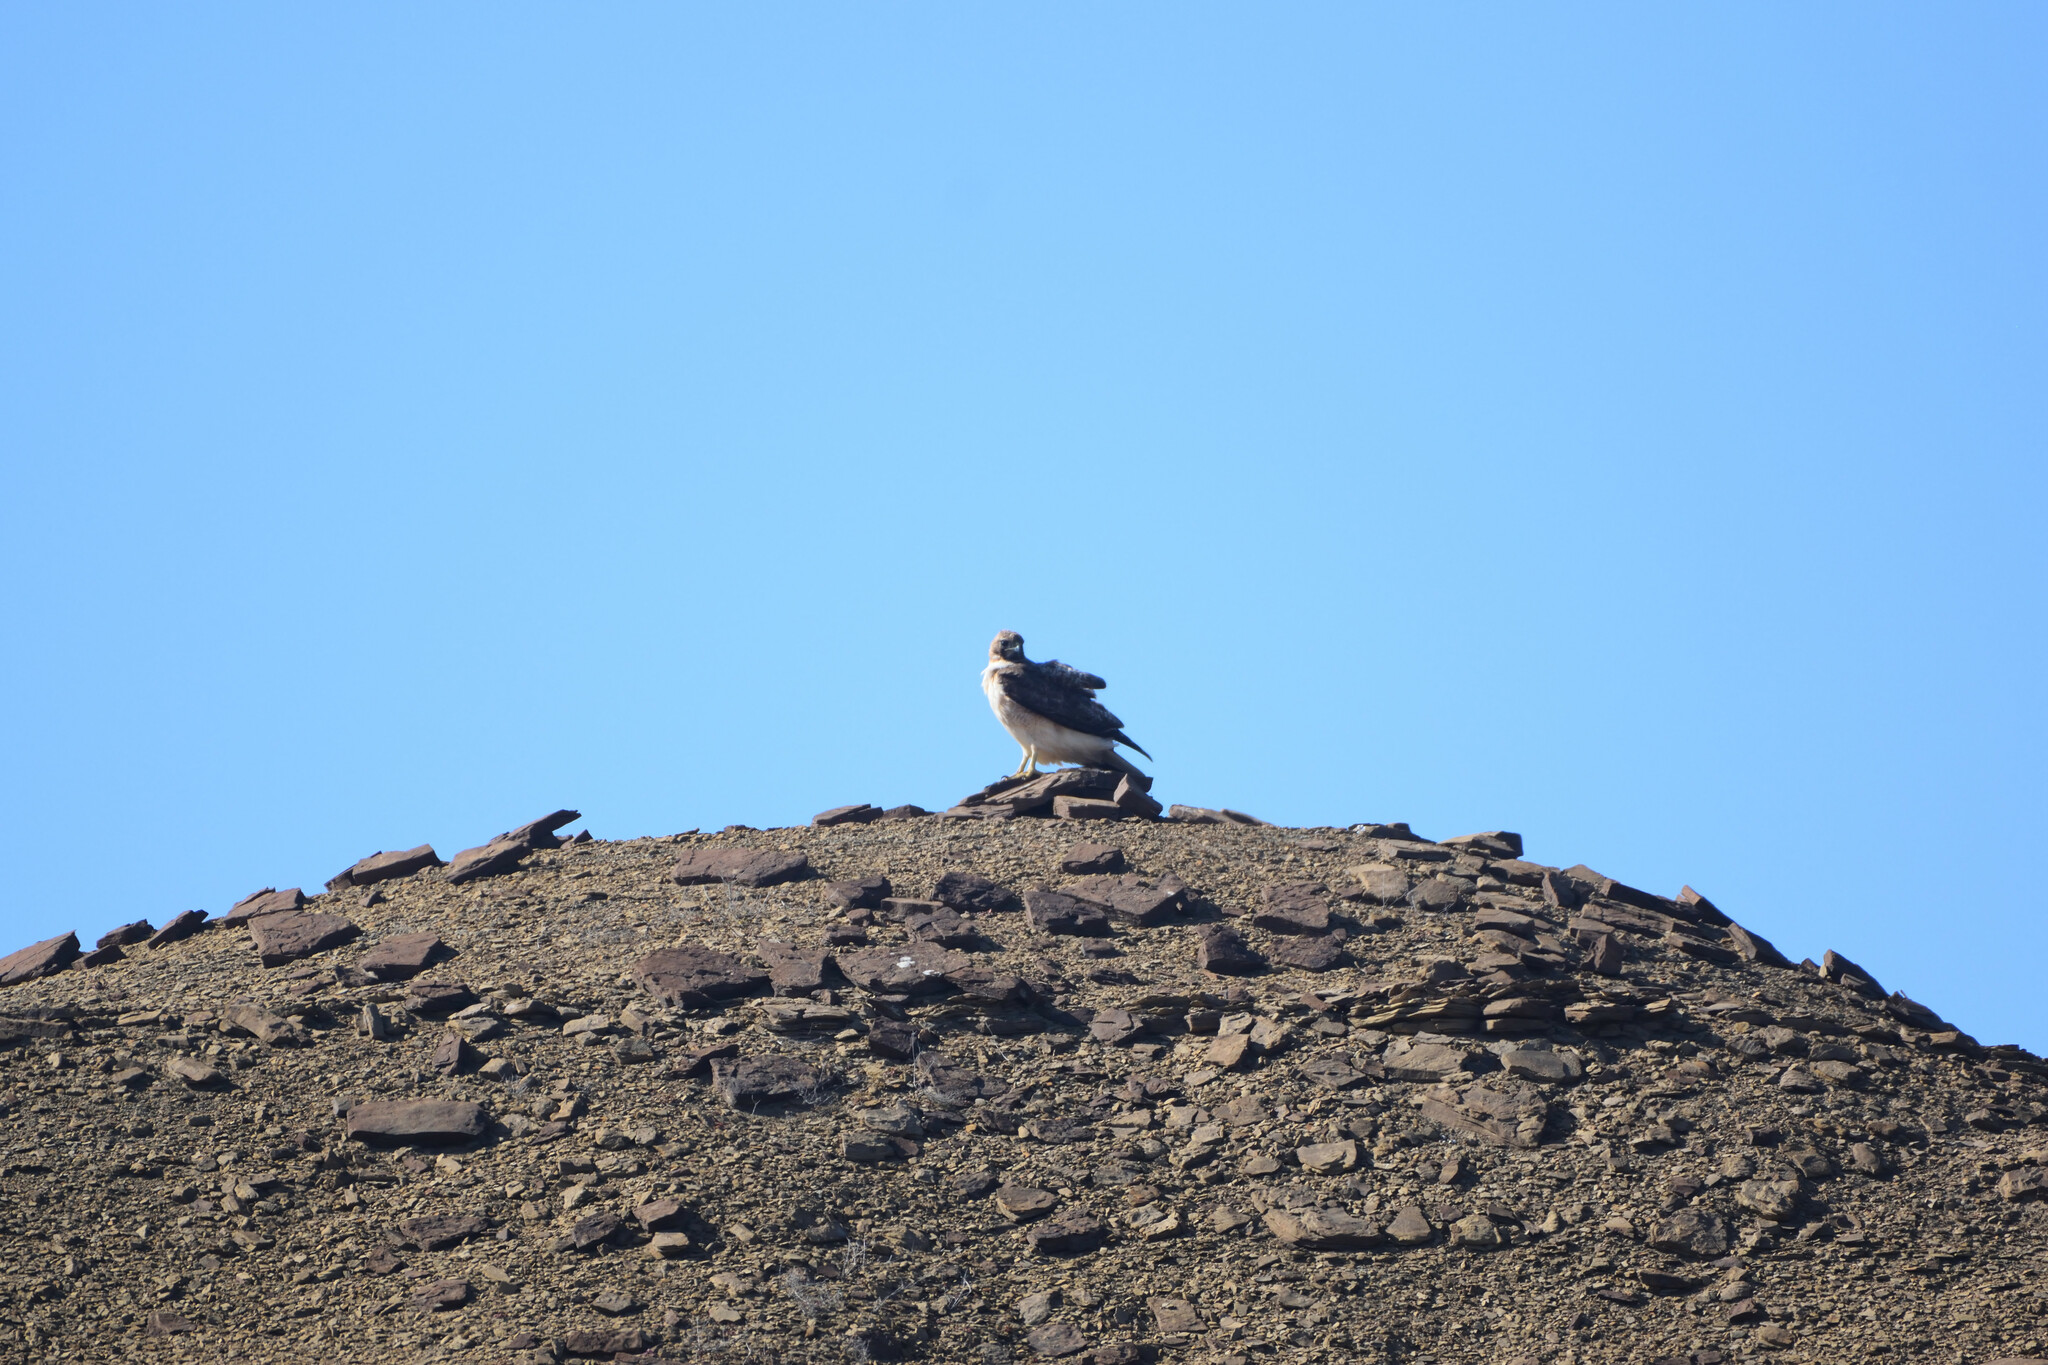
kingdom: Animalia
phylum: Chordata
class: Aves
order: Accipitriformes
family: Accipitridae
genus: Buteo
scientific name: Buteo jamaicensis
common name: Red-tailed hawk
